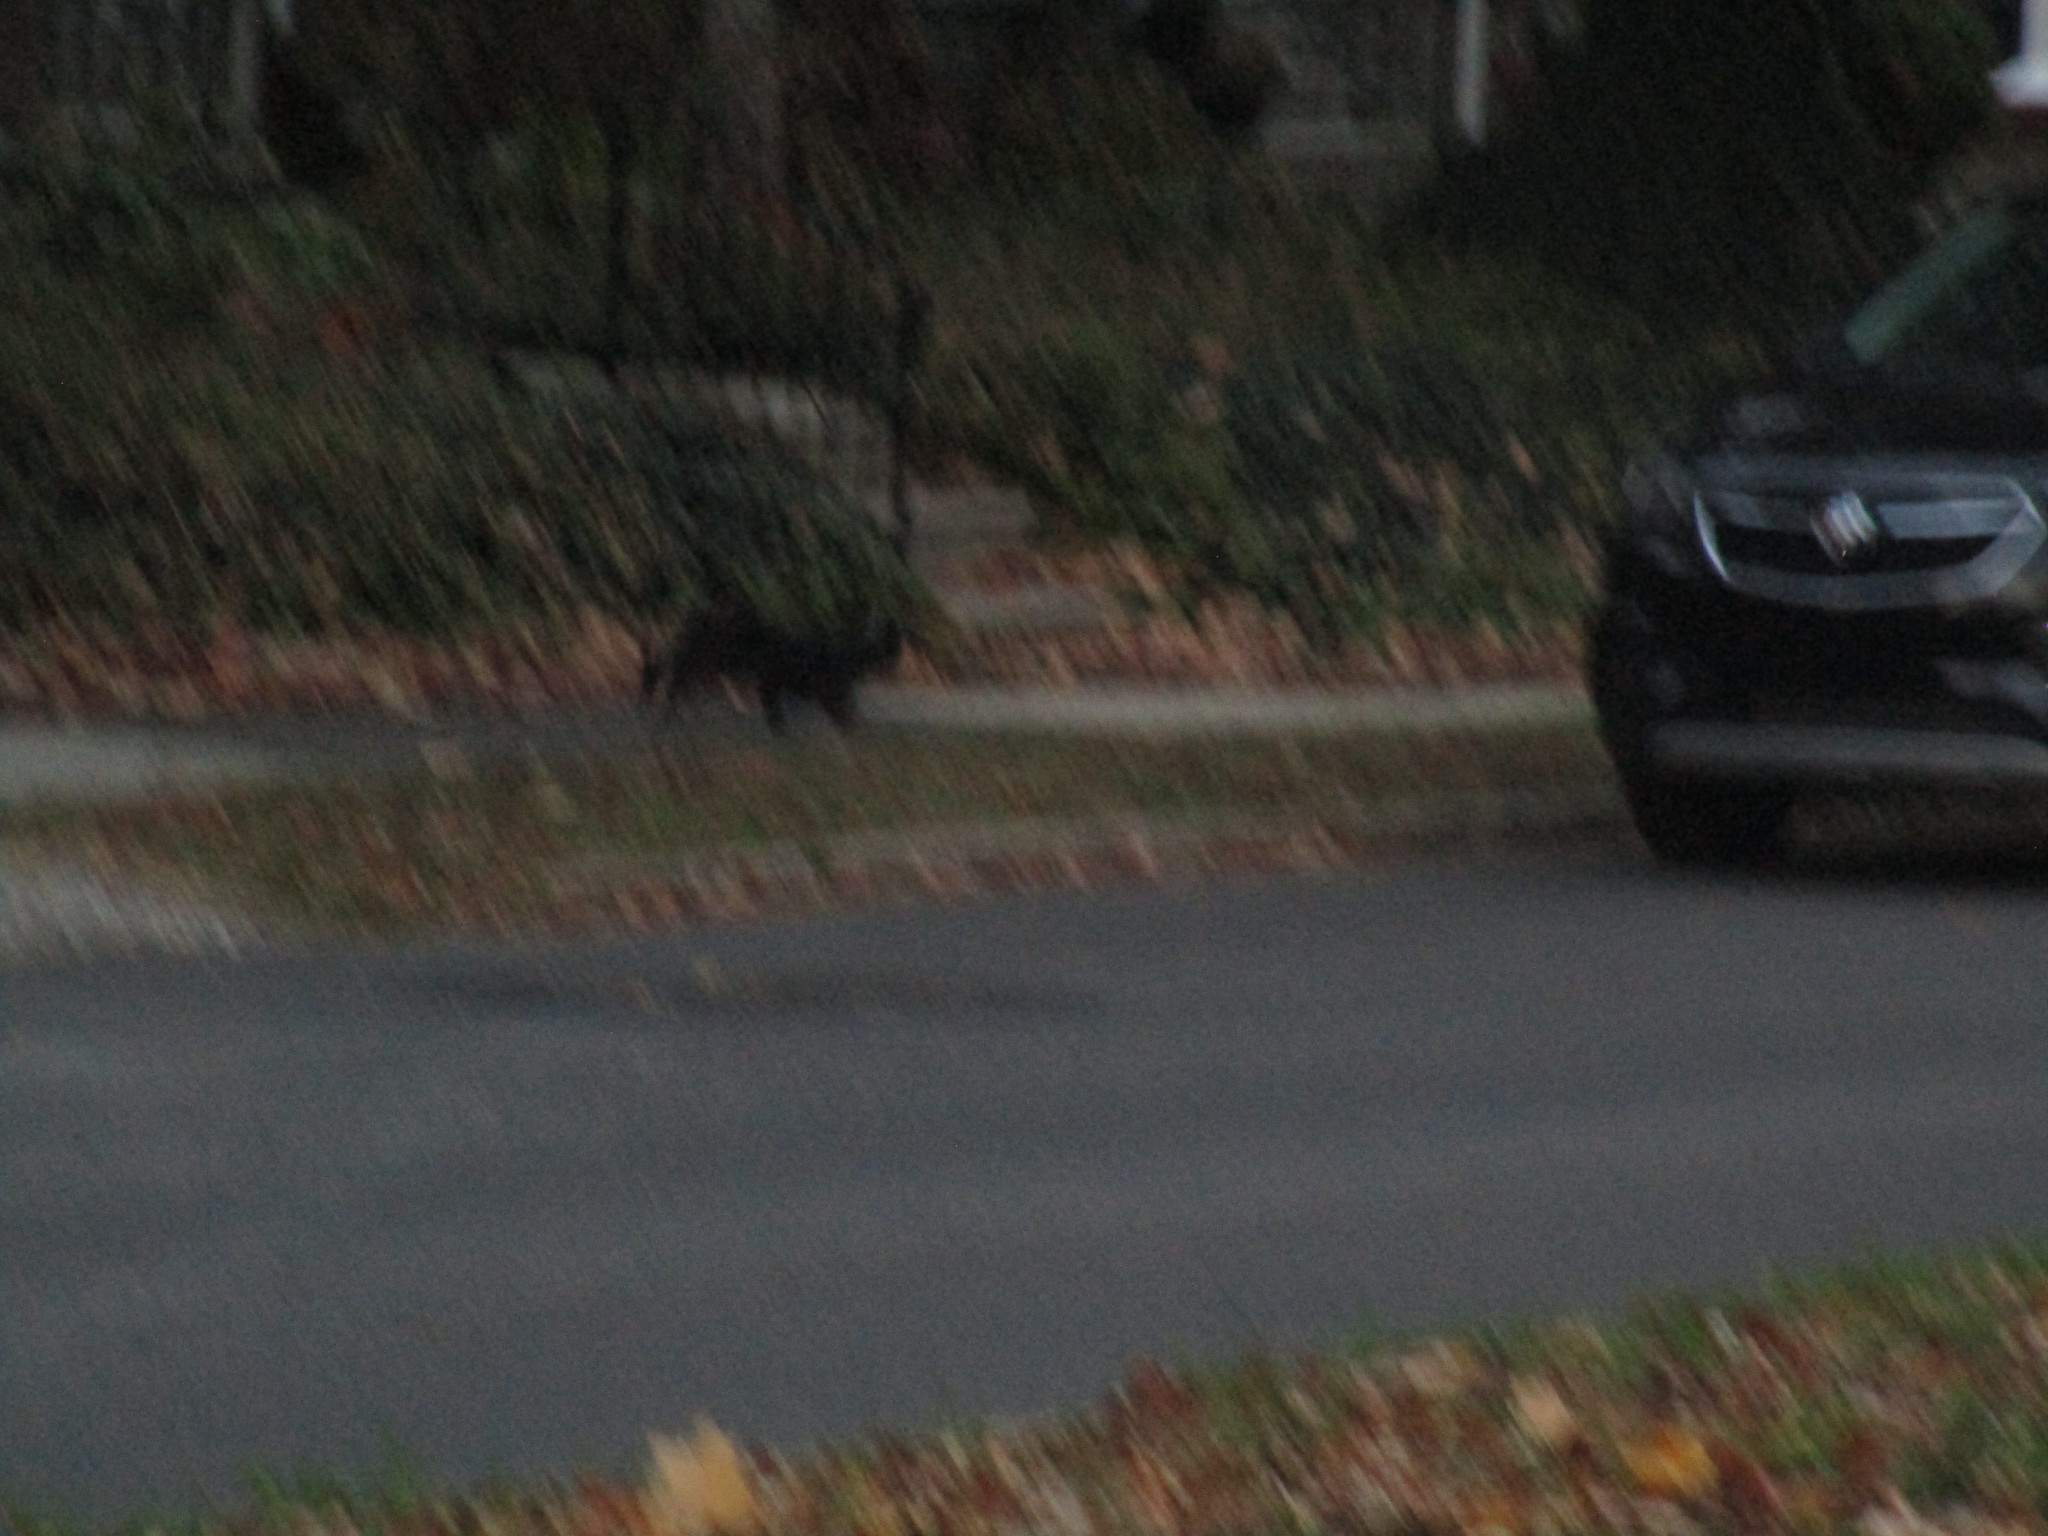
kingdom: Animalia
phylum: Chordata
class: Mammalia
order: Carnivora
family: Felidae
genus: Felis
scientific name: Felis catus
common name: Domestic cat
